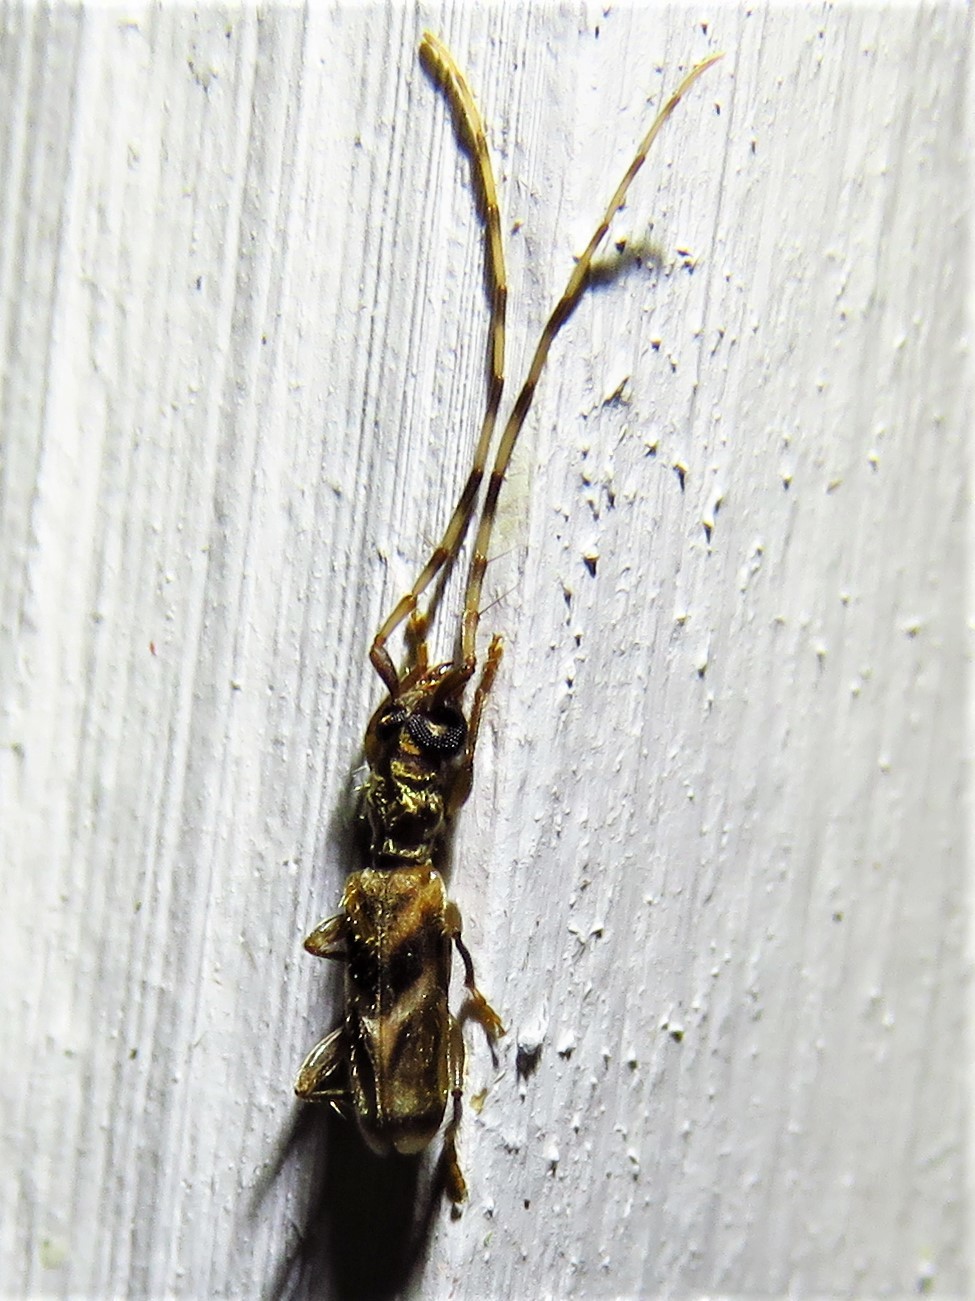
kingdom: Animalia
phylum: Arthropoda
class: Insecta
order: Coleoptera
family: Cerambycidae
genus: Stenhomalus
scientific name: Stenhomalus taiwanus
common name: Taiwan slender longhorned beetle
